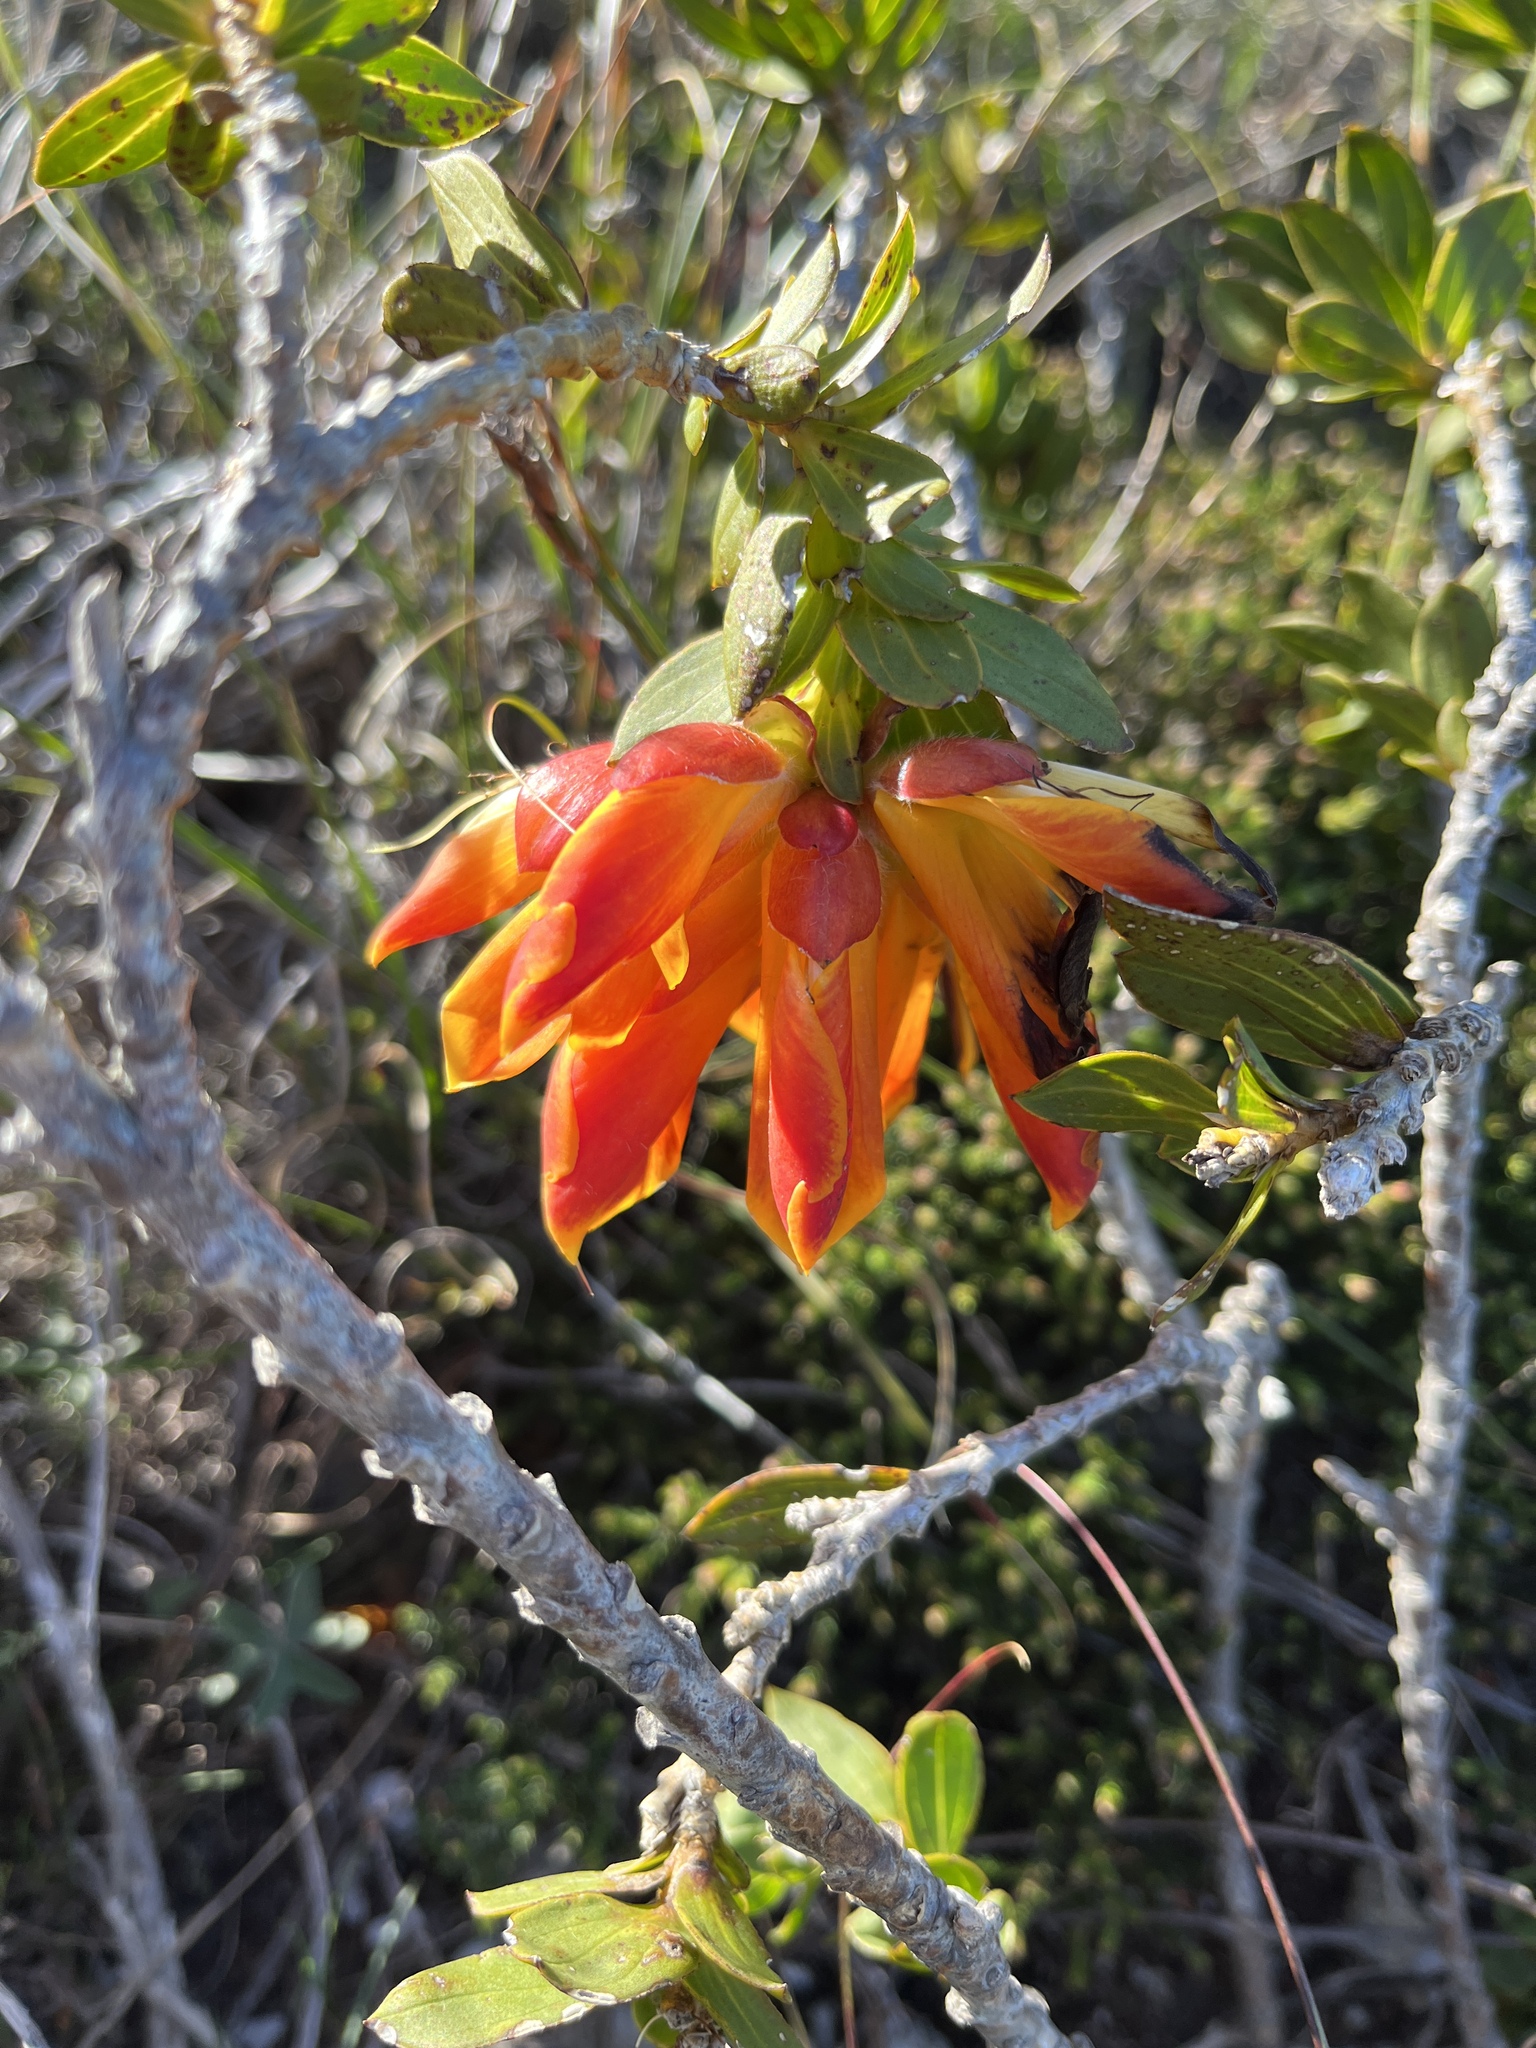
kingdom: Plantae
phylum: Tracheophyta
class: Magnoliopsida
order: Fabales
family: Fabaceae
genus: Liparia
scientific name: Liparia splendens
